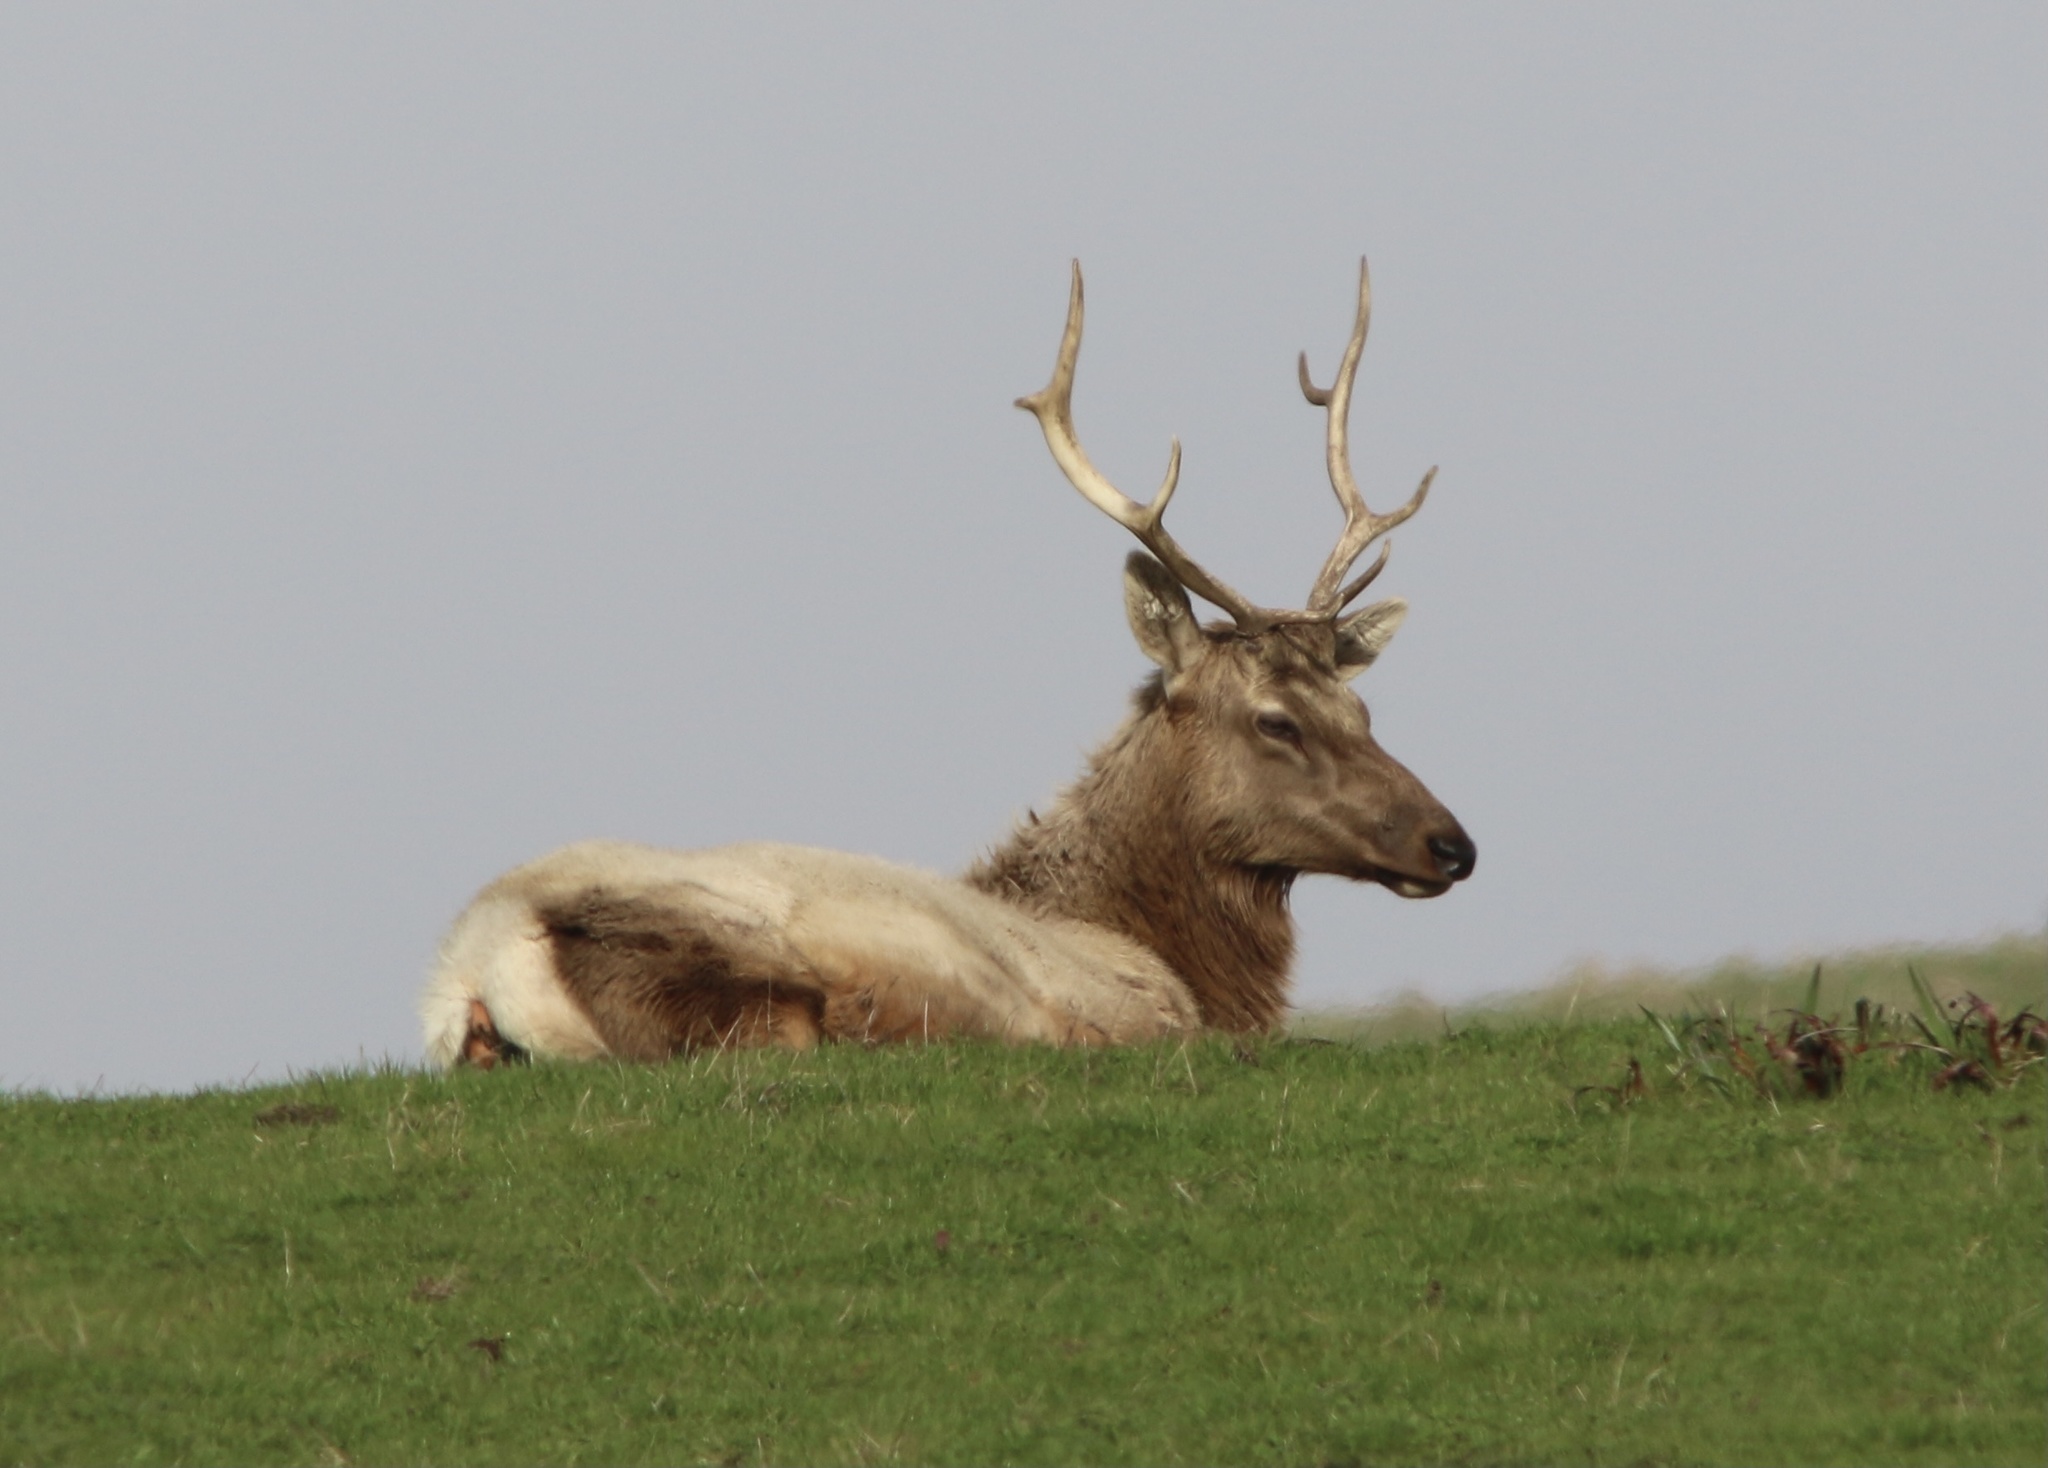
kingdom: Animalia
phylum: Chordata
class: Mammalia
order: Artiodactyla
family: Cervidae
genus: Cervus
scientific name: Cervus elaphus
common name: Red deer
